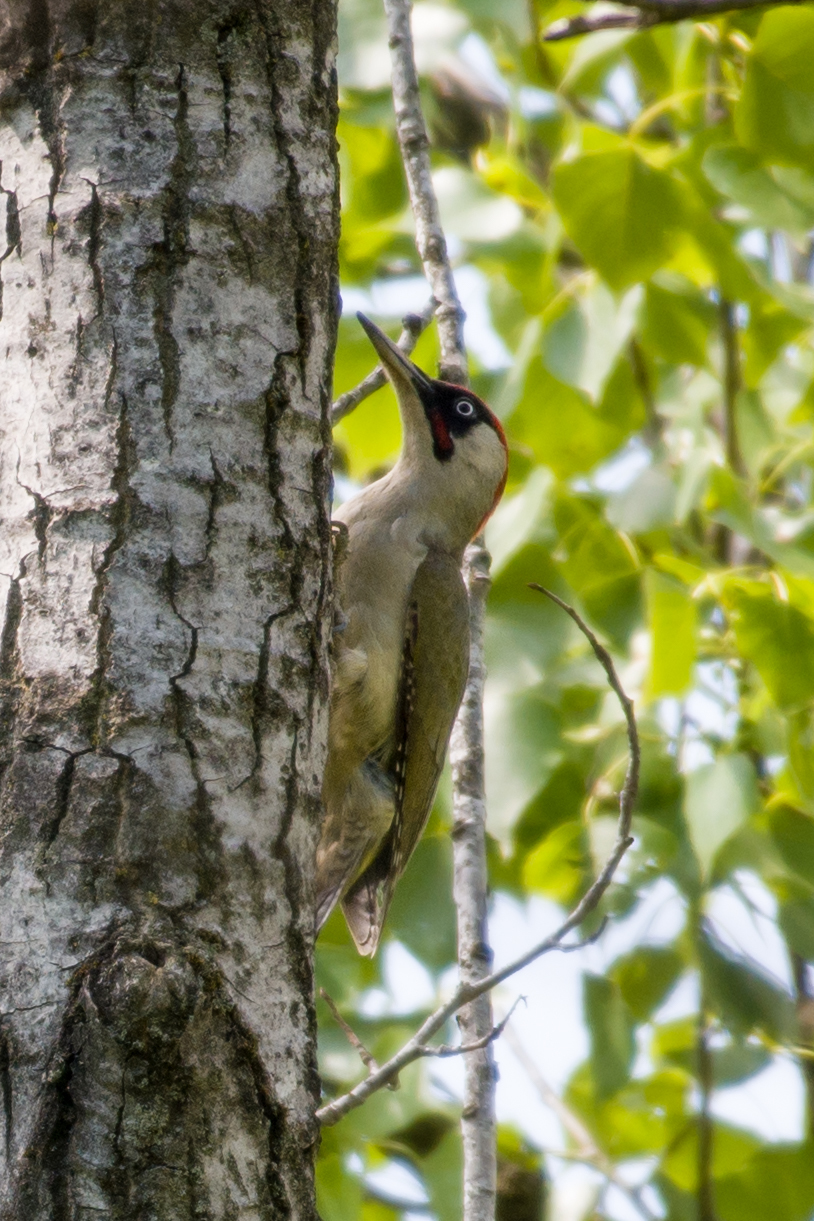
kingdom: Animalia
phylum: Chordata
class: Aves
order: Piciformes
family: Picidae
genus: Picus
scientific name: Picus viridis
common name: European green woodpecker
